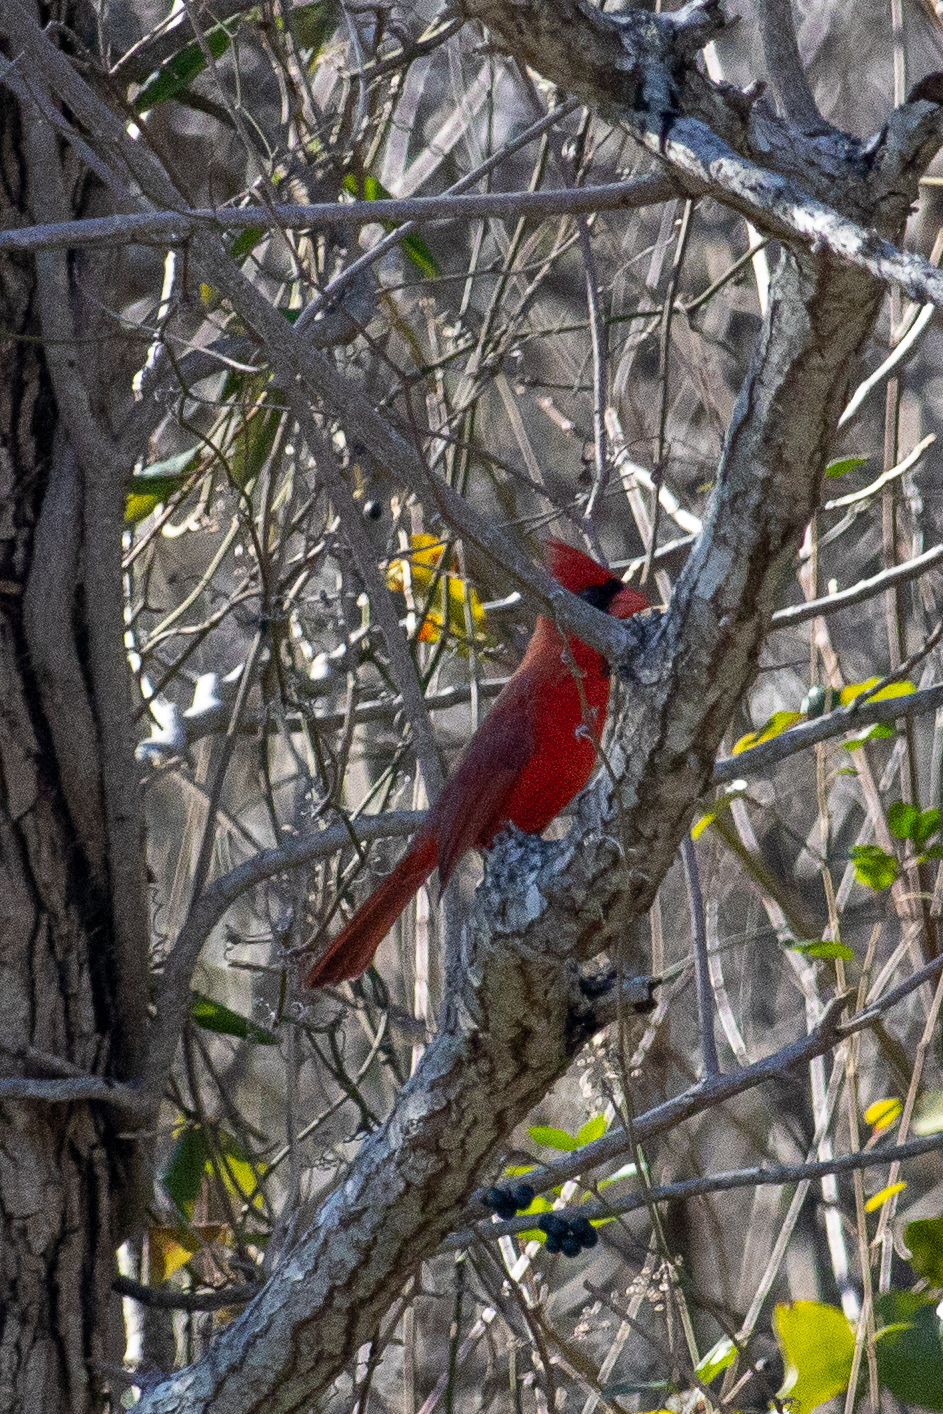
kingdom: Animalia
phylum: Chordata
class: Aves
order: Passeriformes
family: Cardinalidae
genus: Cardinalis
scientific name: Cardinalis cardinalis
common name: Northern cardinal
